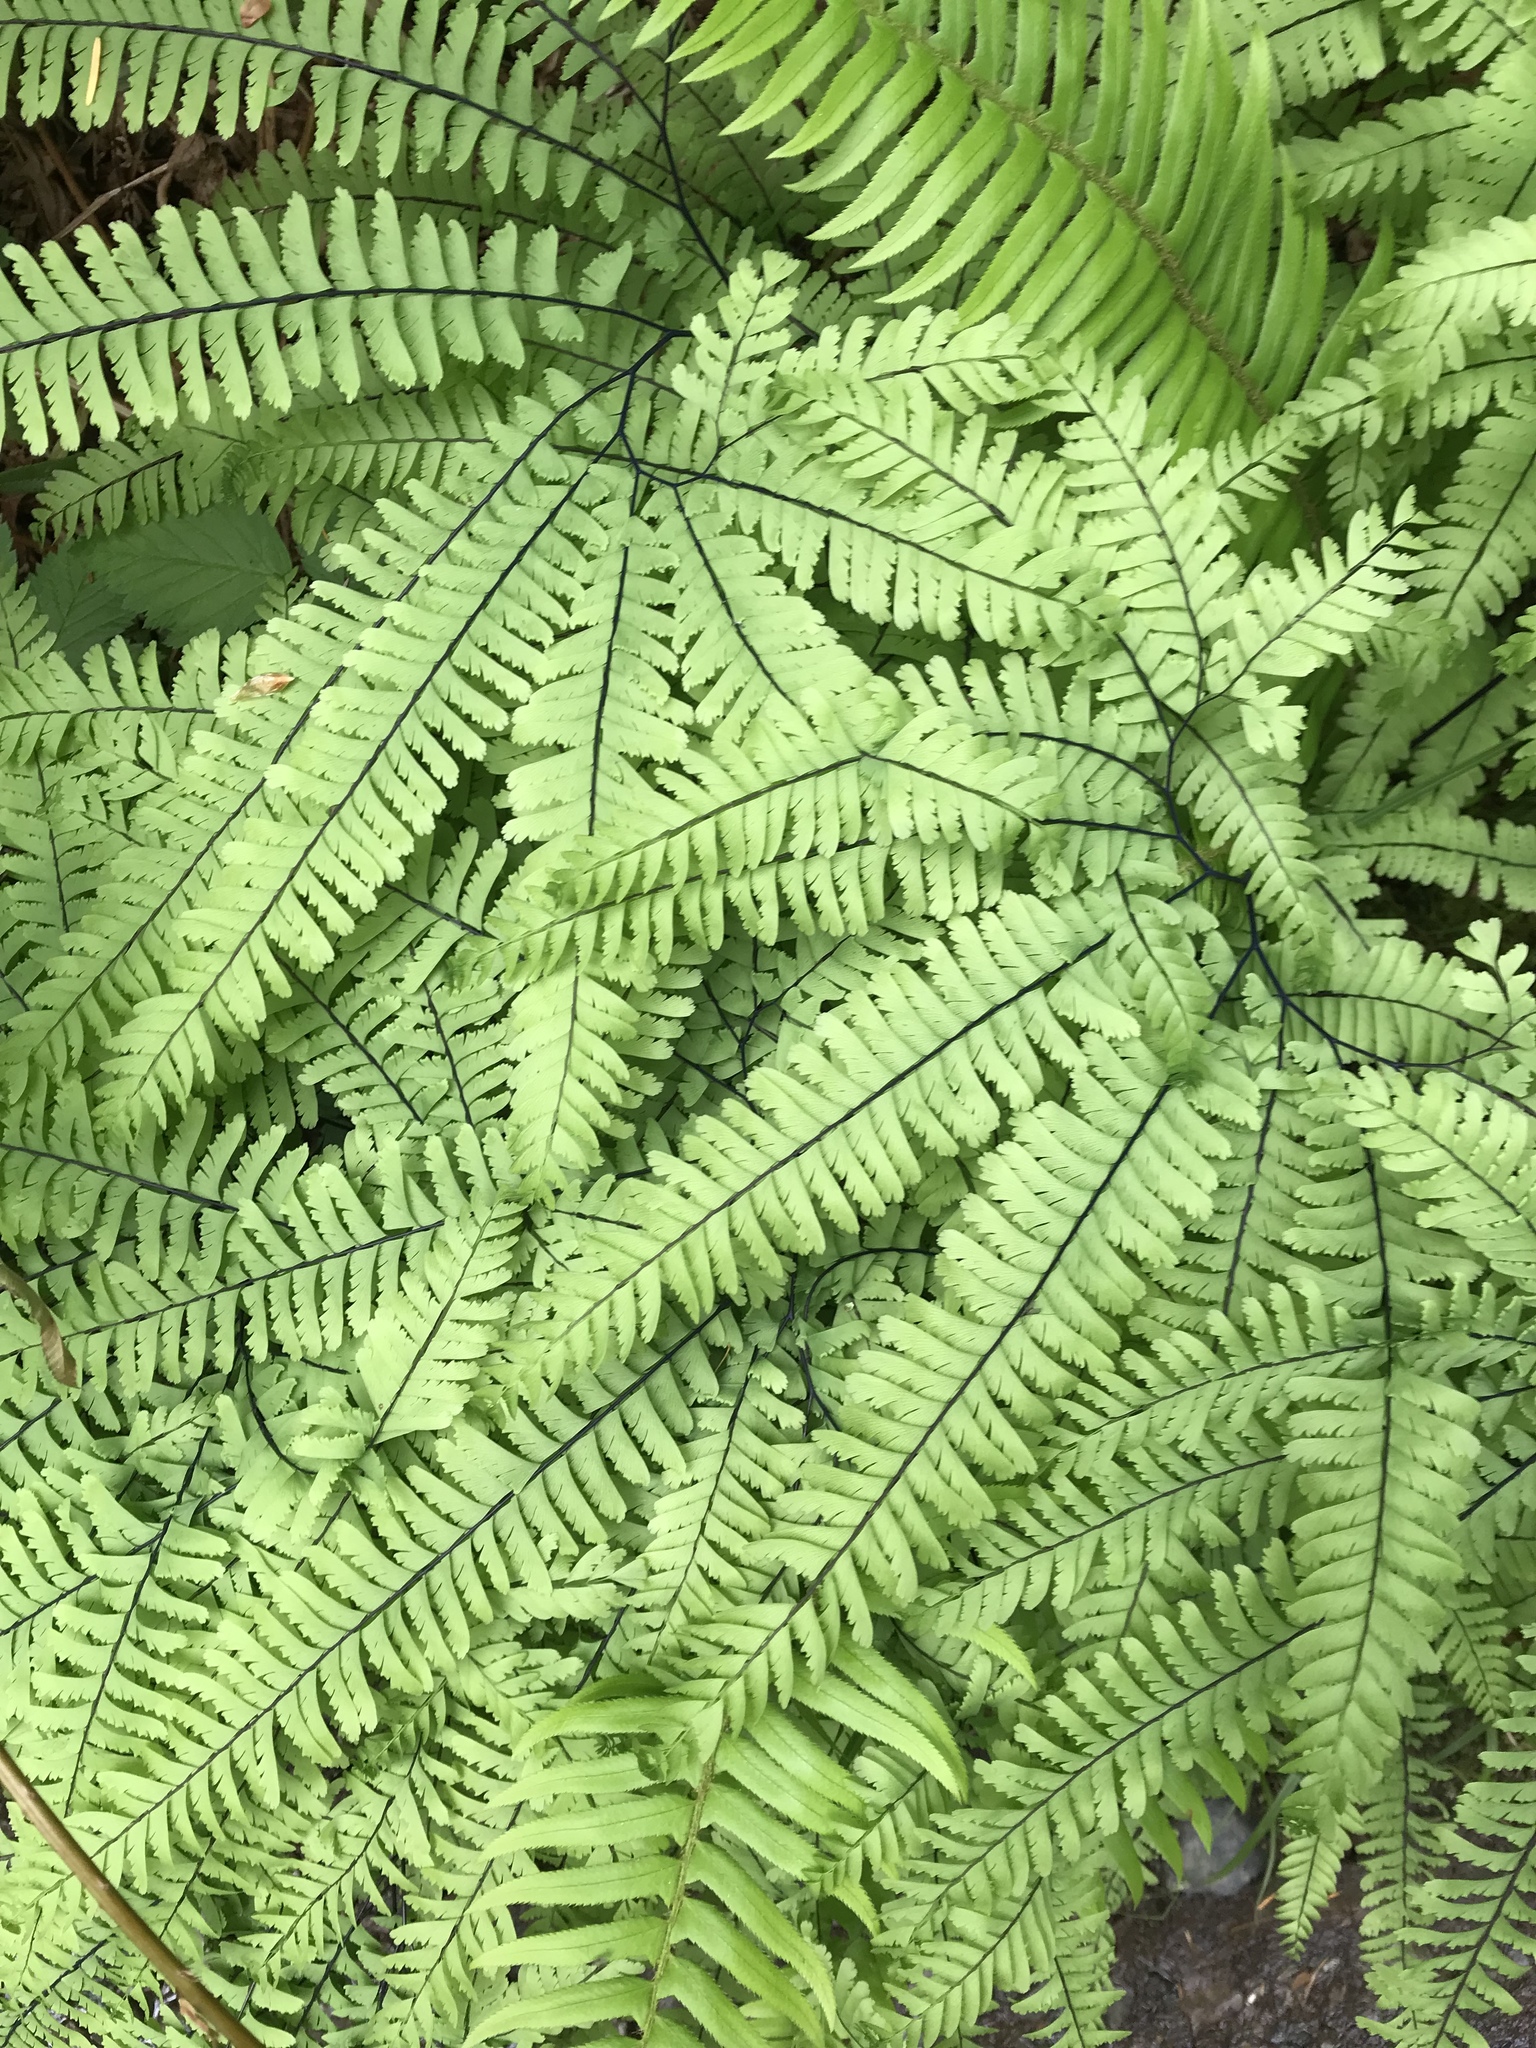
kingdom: Plantae
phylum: Tracheophyta
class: Polypodiopsida
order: Polypodiales
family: Pteridaceae
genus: Adiantum
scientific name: Adiantum aleuticum
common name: Aleutian maidenhair fern
